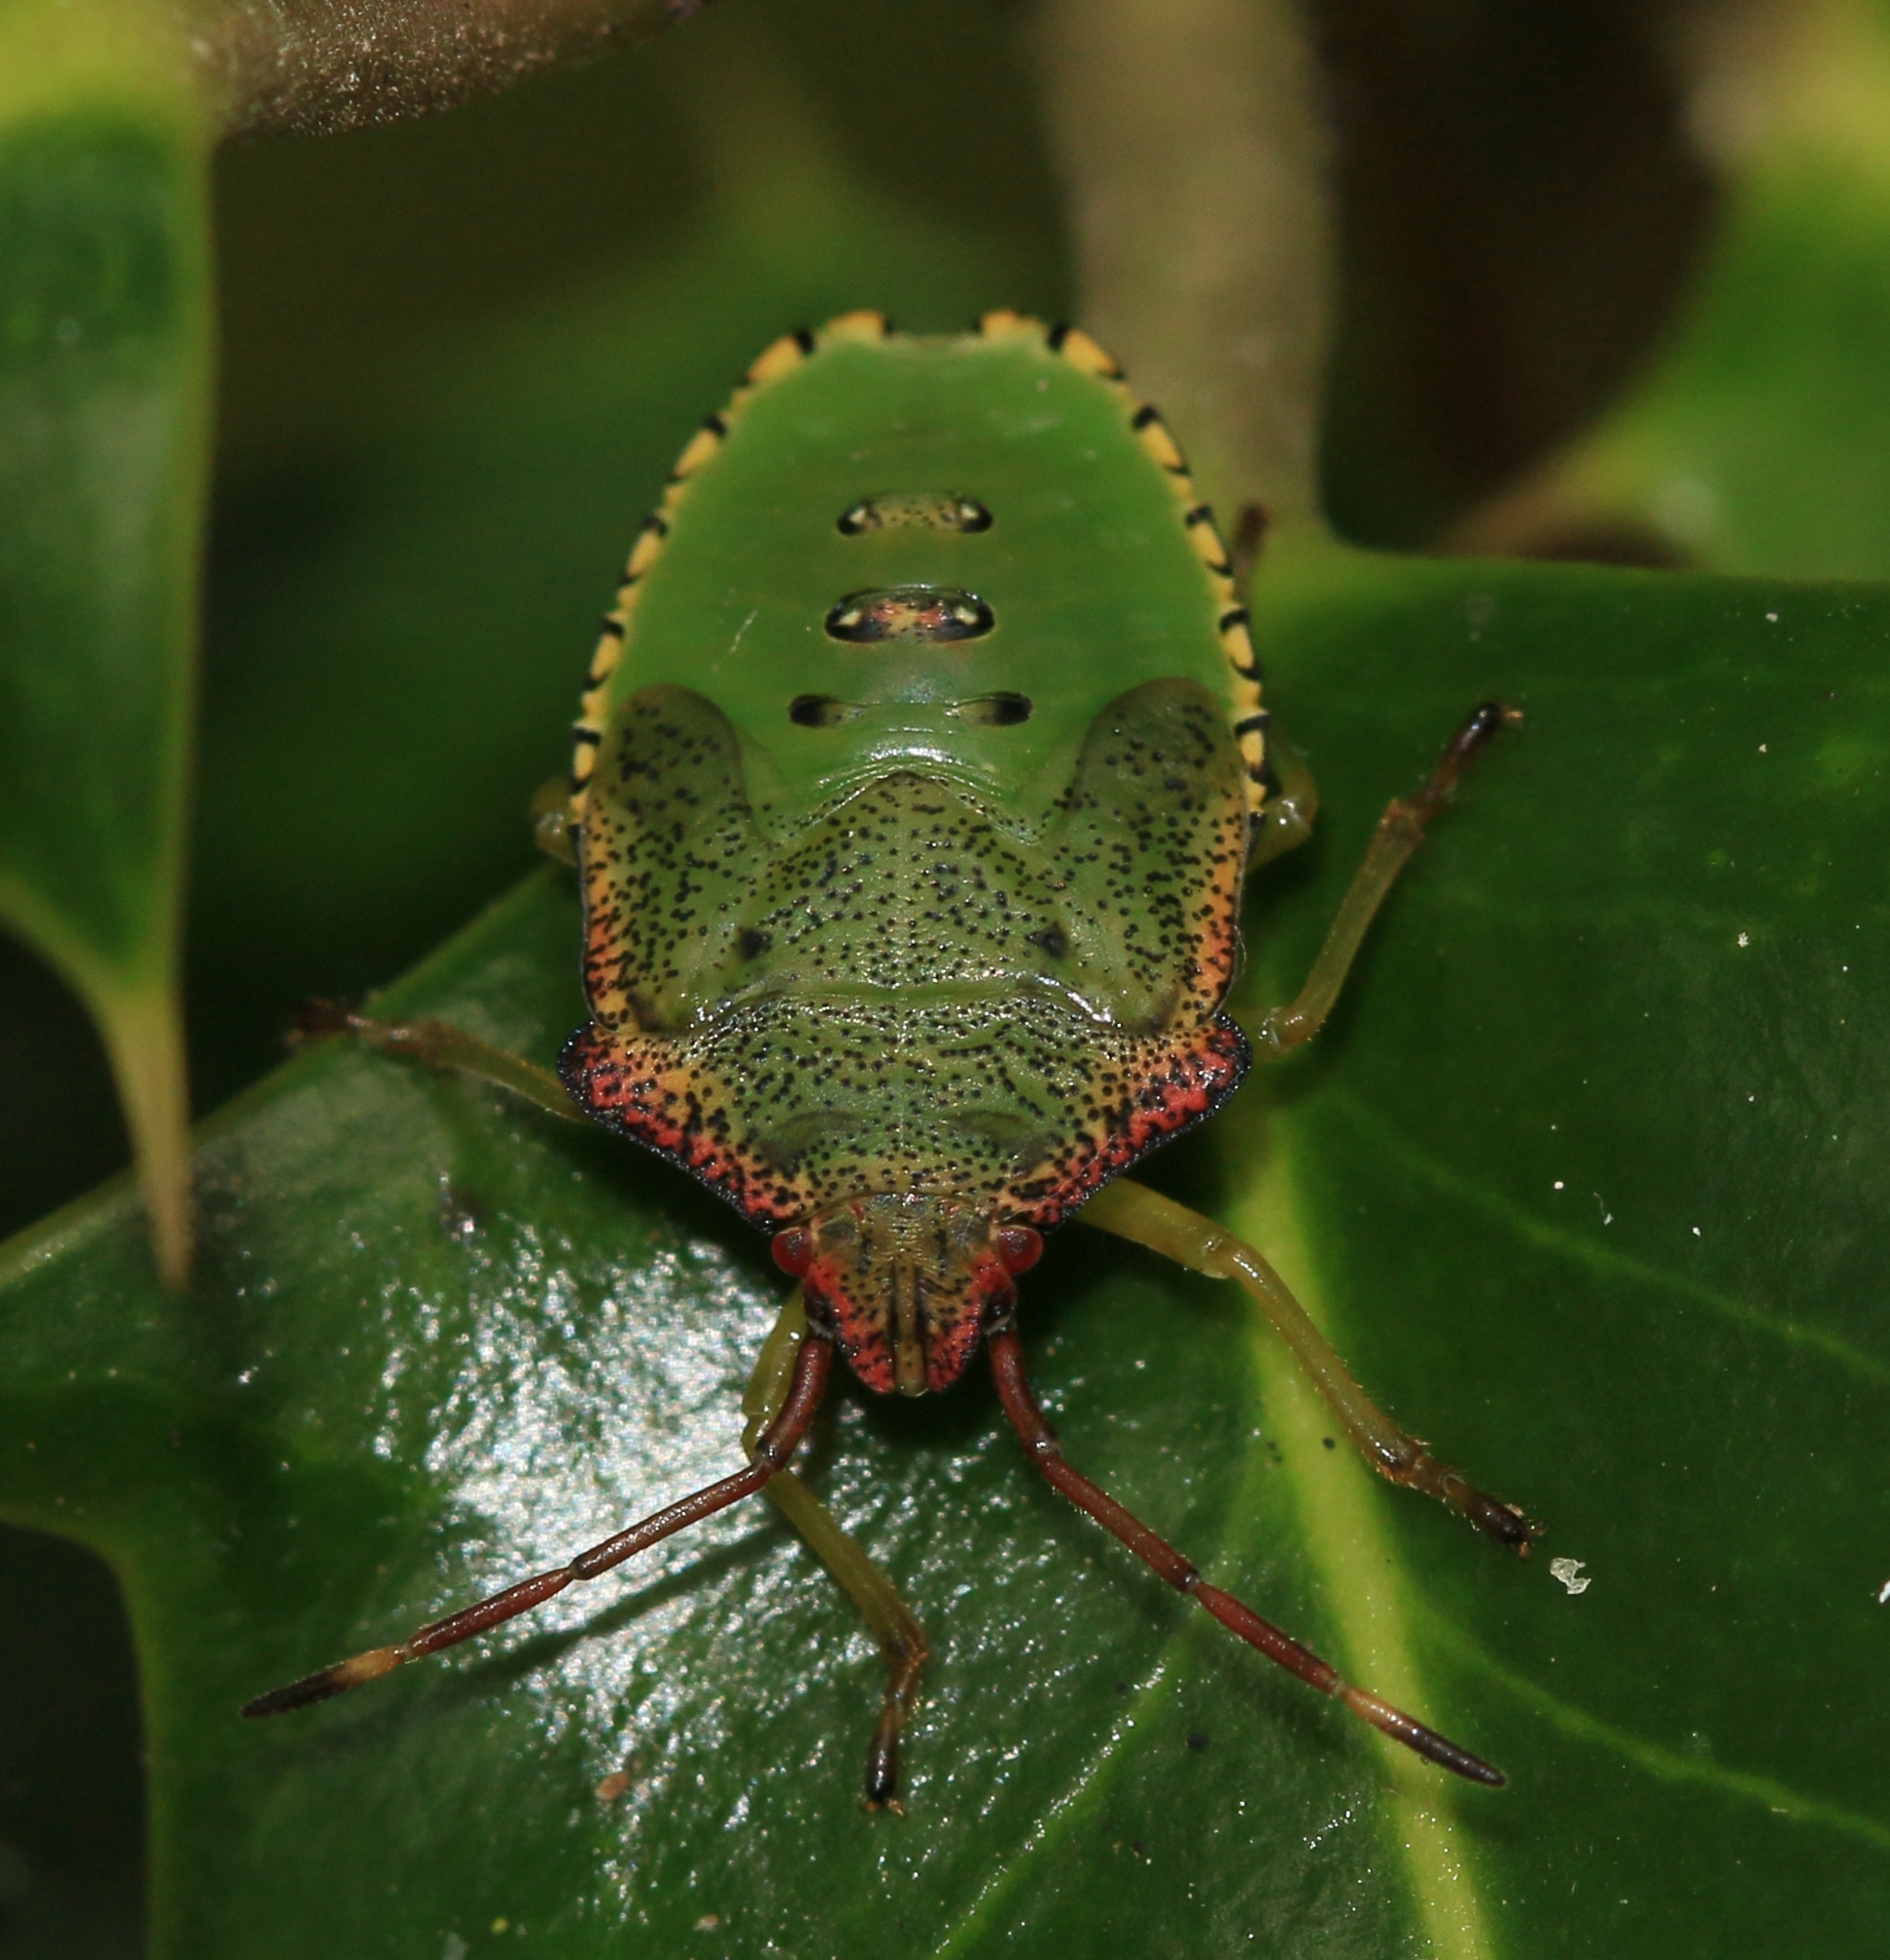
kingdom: Animalia
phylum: Arthropoda
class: Insecta
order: Hemiptera
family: Acanthosomatidae
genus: Acanthosoma
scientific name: Acanthosoma haemorrhoidale
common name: Hawthorn shieldbug
